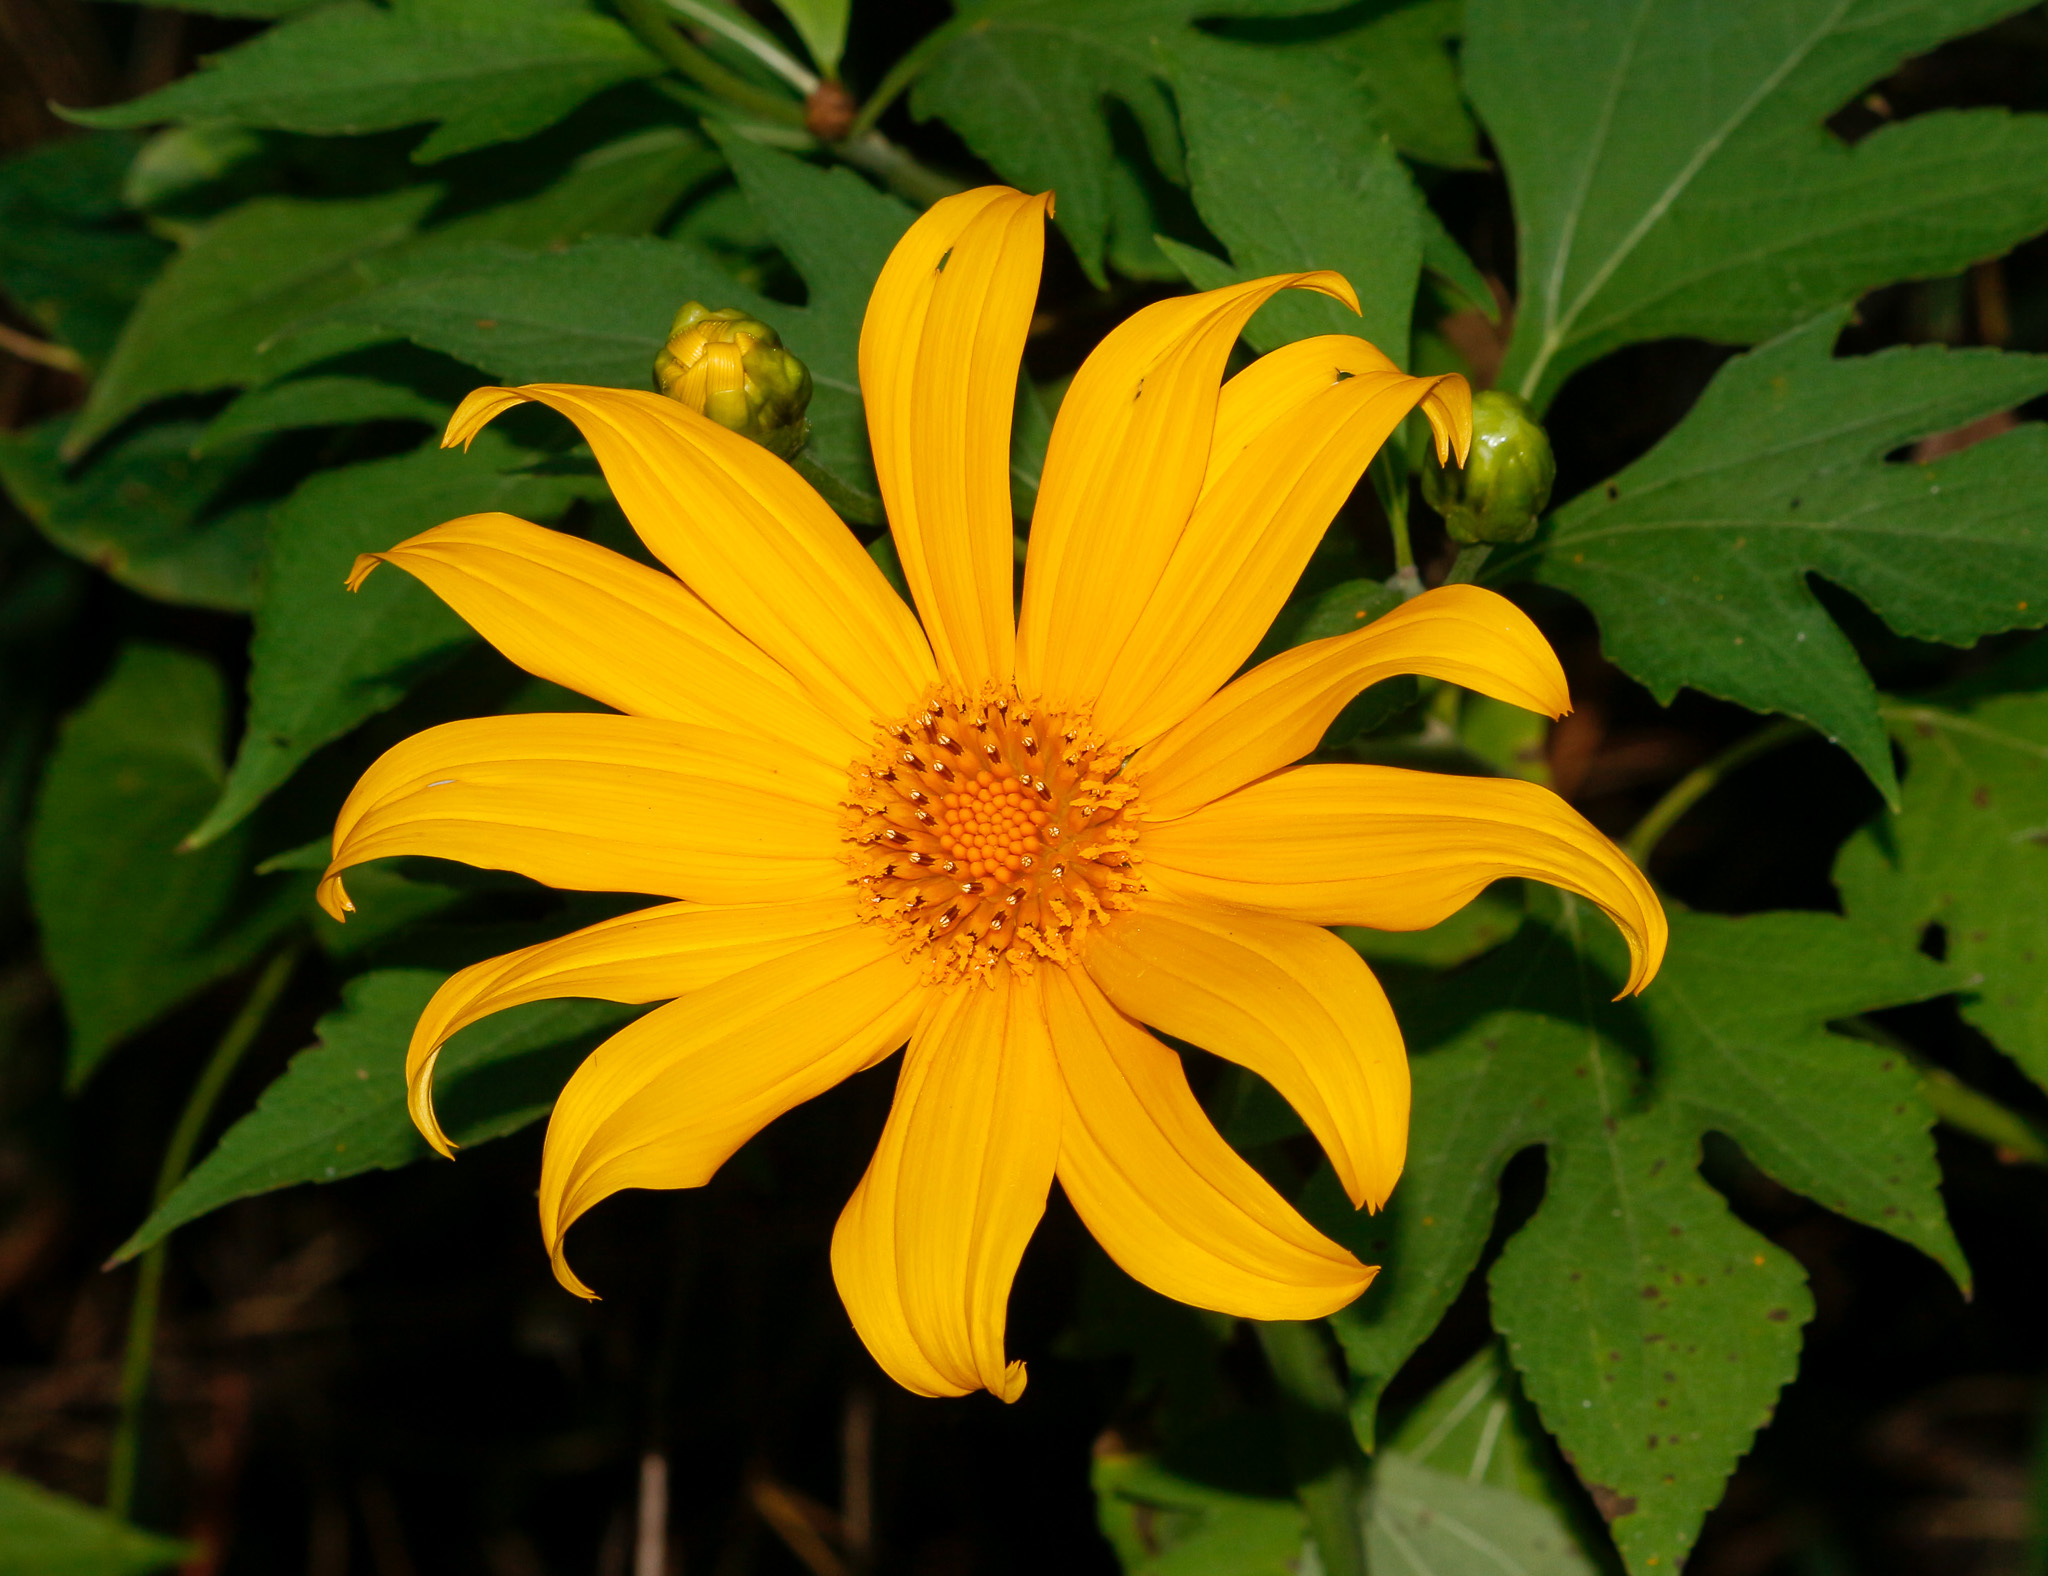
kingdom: Plantae
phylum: Tracheophyta
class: Magnoliopsida
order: Asterales
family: Asteraceae
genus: Tithonia
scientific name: Tithonia diversifolia
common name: Tree marigold
